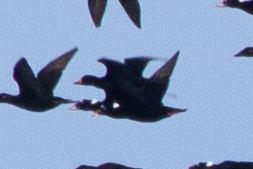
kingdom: Animalia
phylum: Chordata
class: Aves
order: Anseriformes
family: Anatidae
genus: Melanitta
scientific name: Melanitta americana
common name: Black scoter
